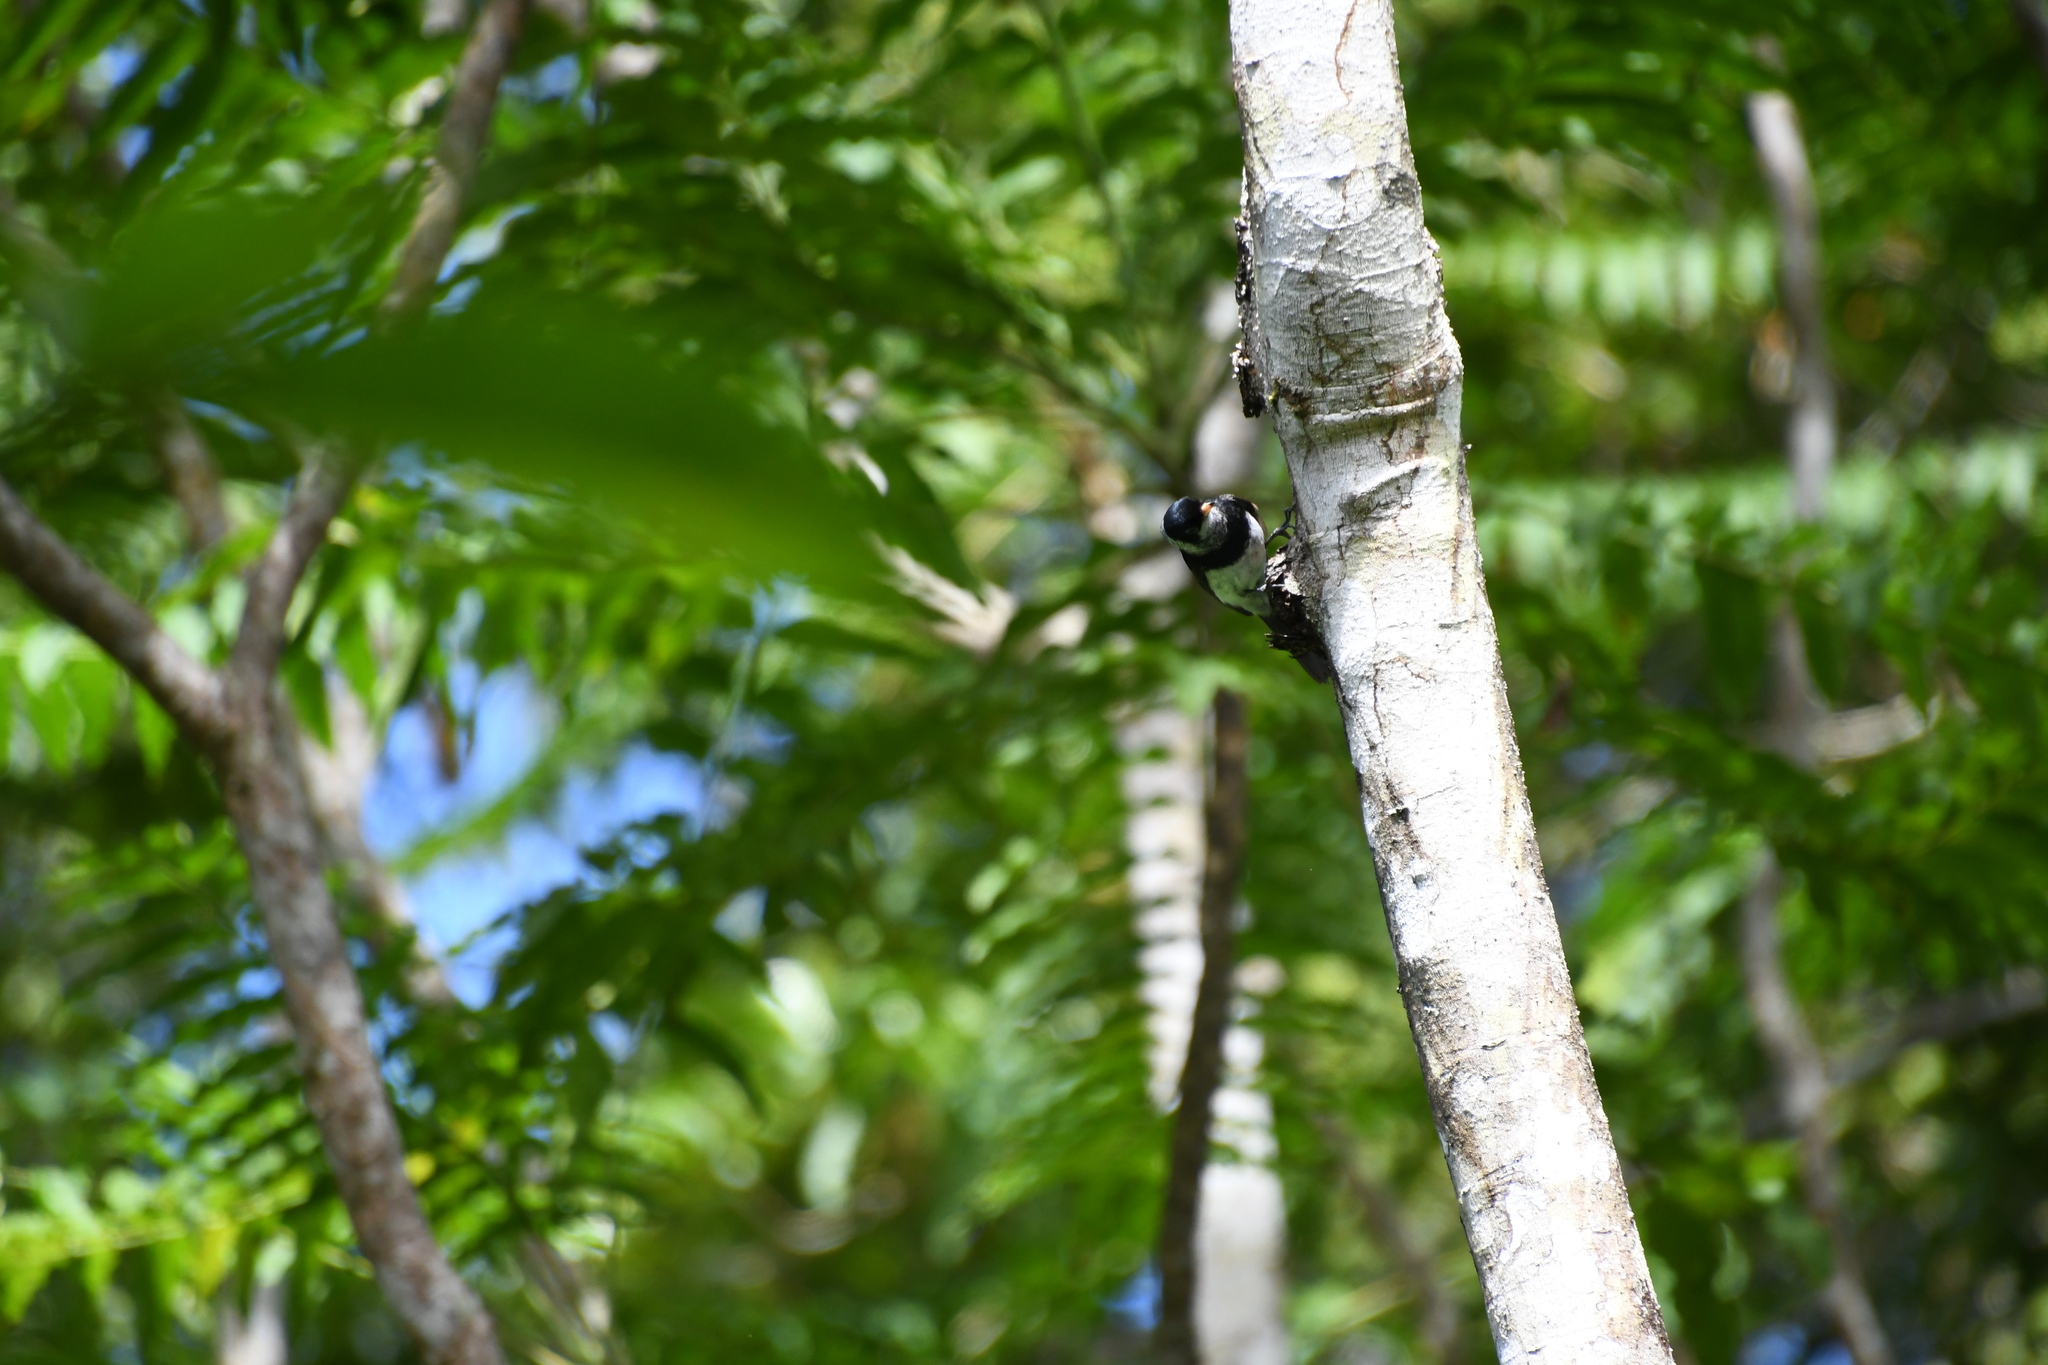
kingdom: Animalia
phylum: Chordata
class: Aves
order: Passeriformes
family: Monarchidae
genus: Arses
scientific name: Arses kaupi
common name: Pied monarch
